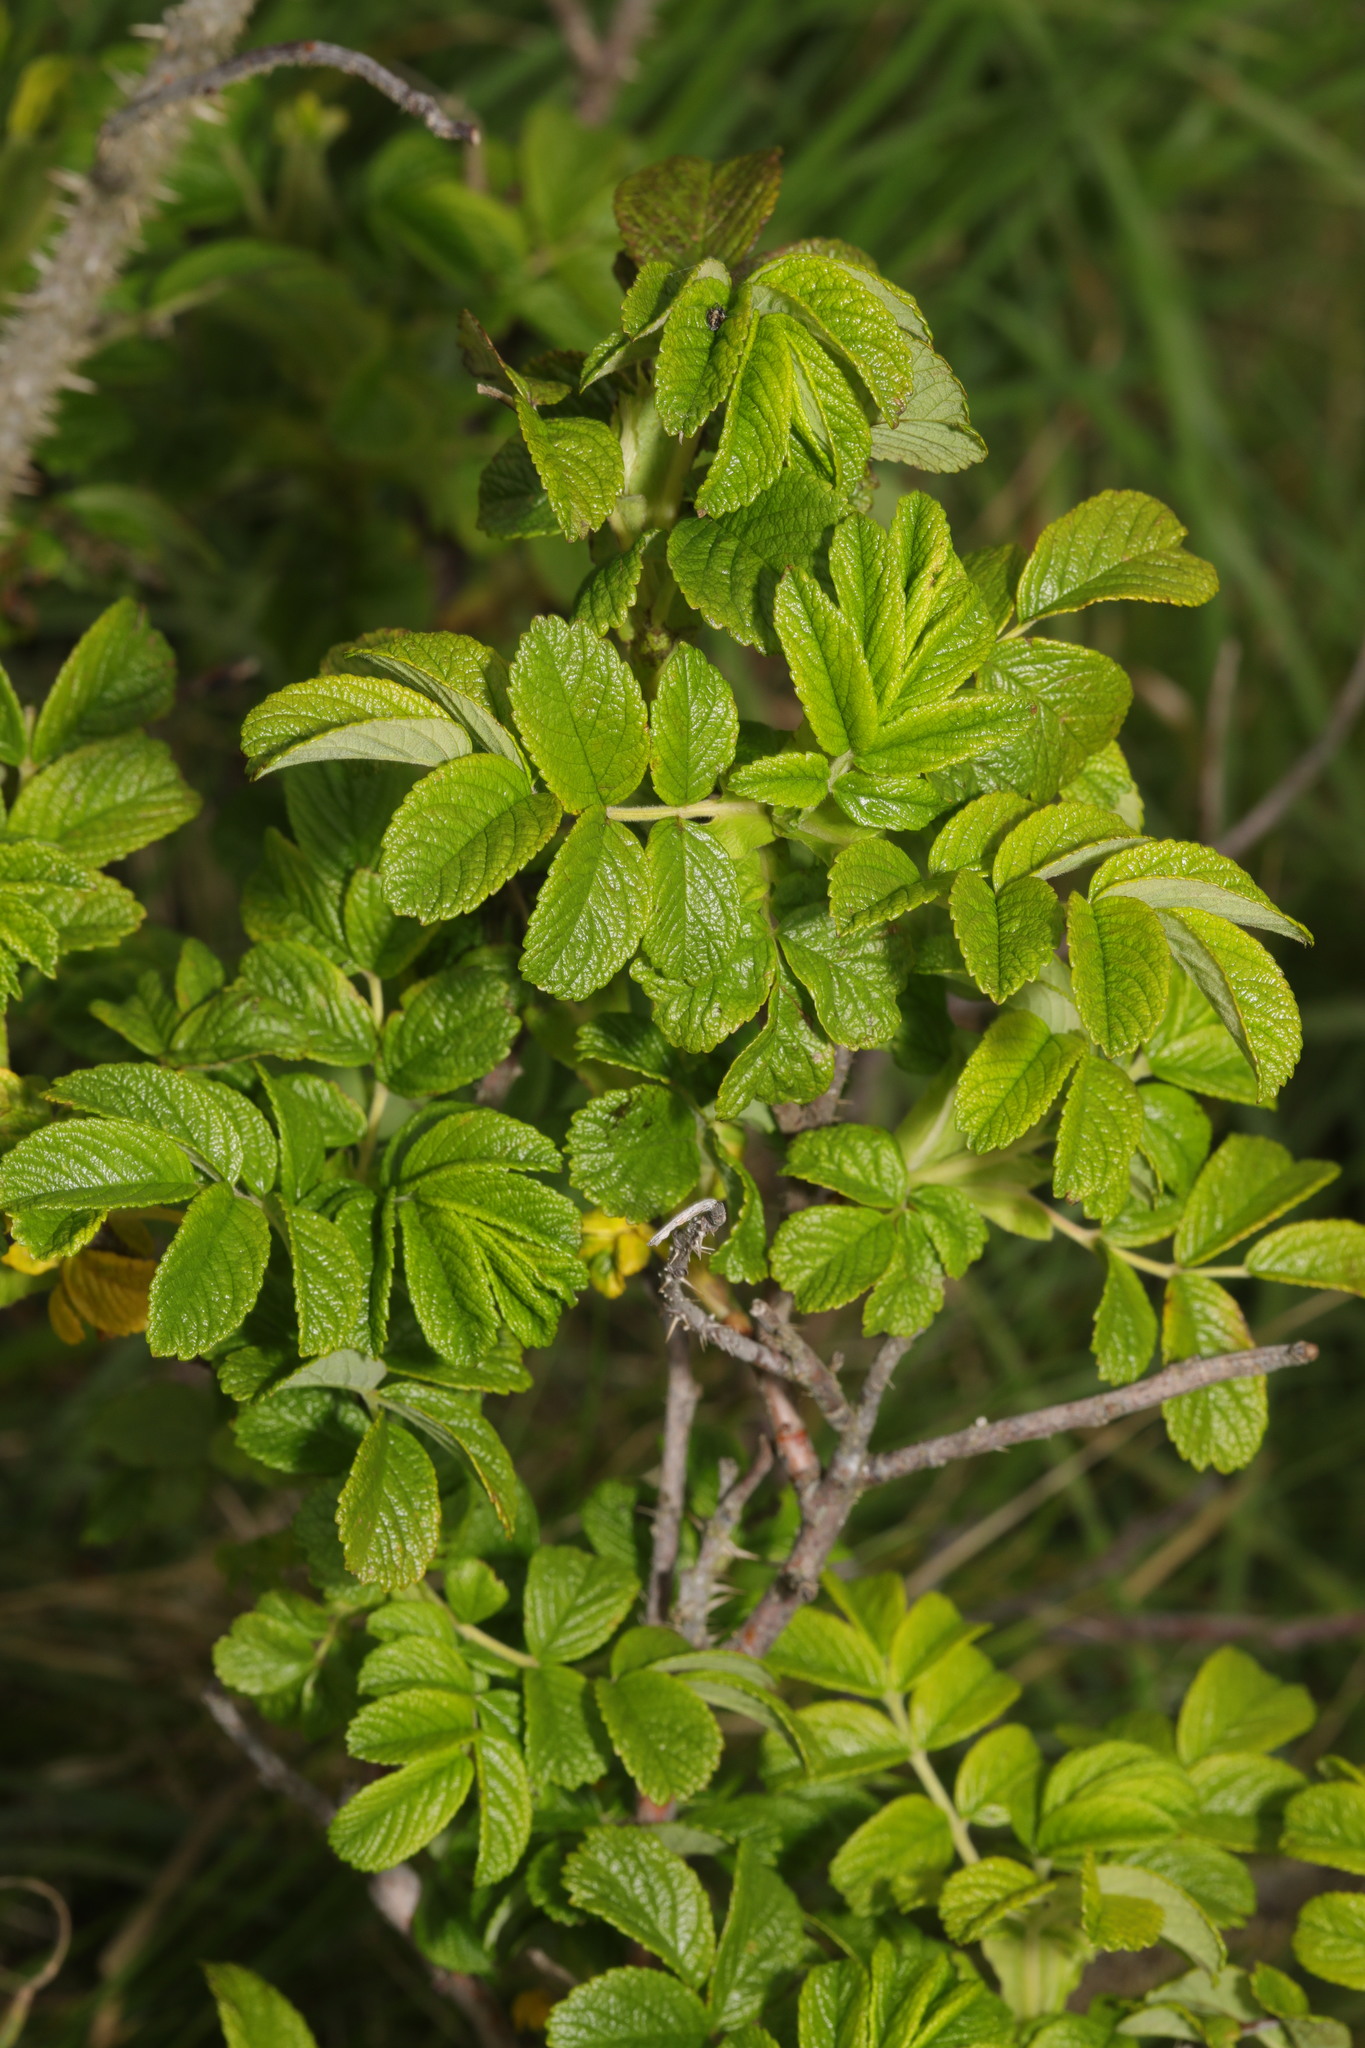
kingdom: Plantae
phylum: Tracheophyta
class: Magnoliopsida
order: Rosales
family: Rosaceae
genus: Rosa
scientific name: Rosa rugosa
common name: Japanese rose
